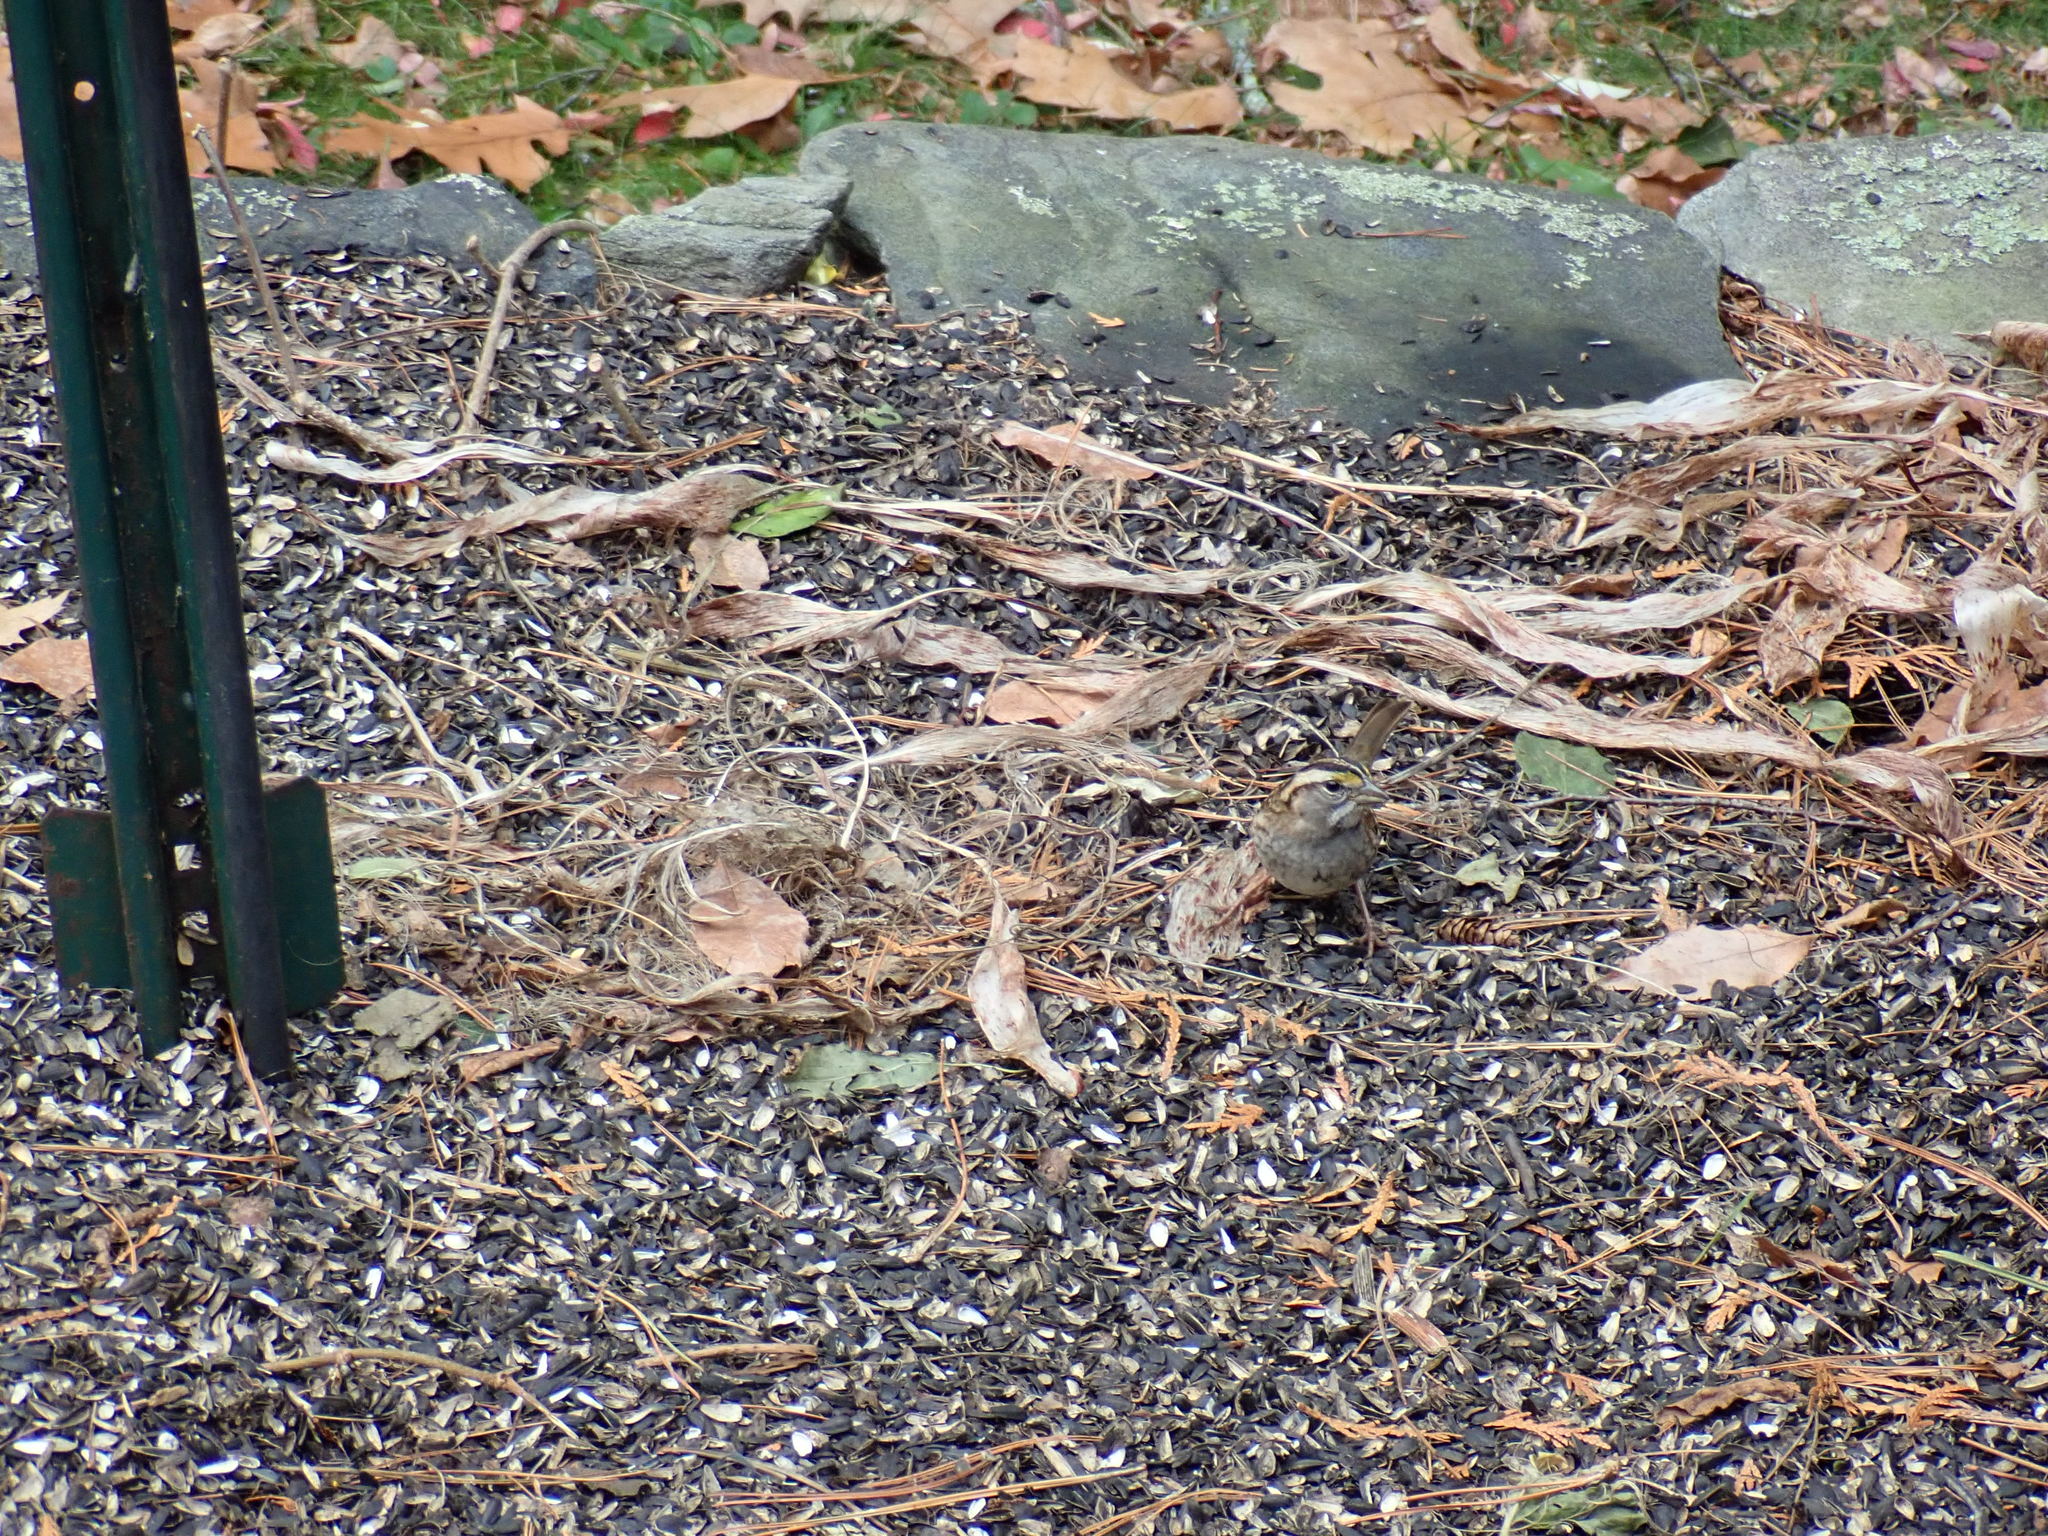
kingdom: Animalia
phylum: Chordata
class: Aves
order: Passeriformes
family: Passerellidae
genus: Zonotrichia
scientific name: Zonotrichia albicollis
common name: White-throated sparrow
